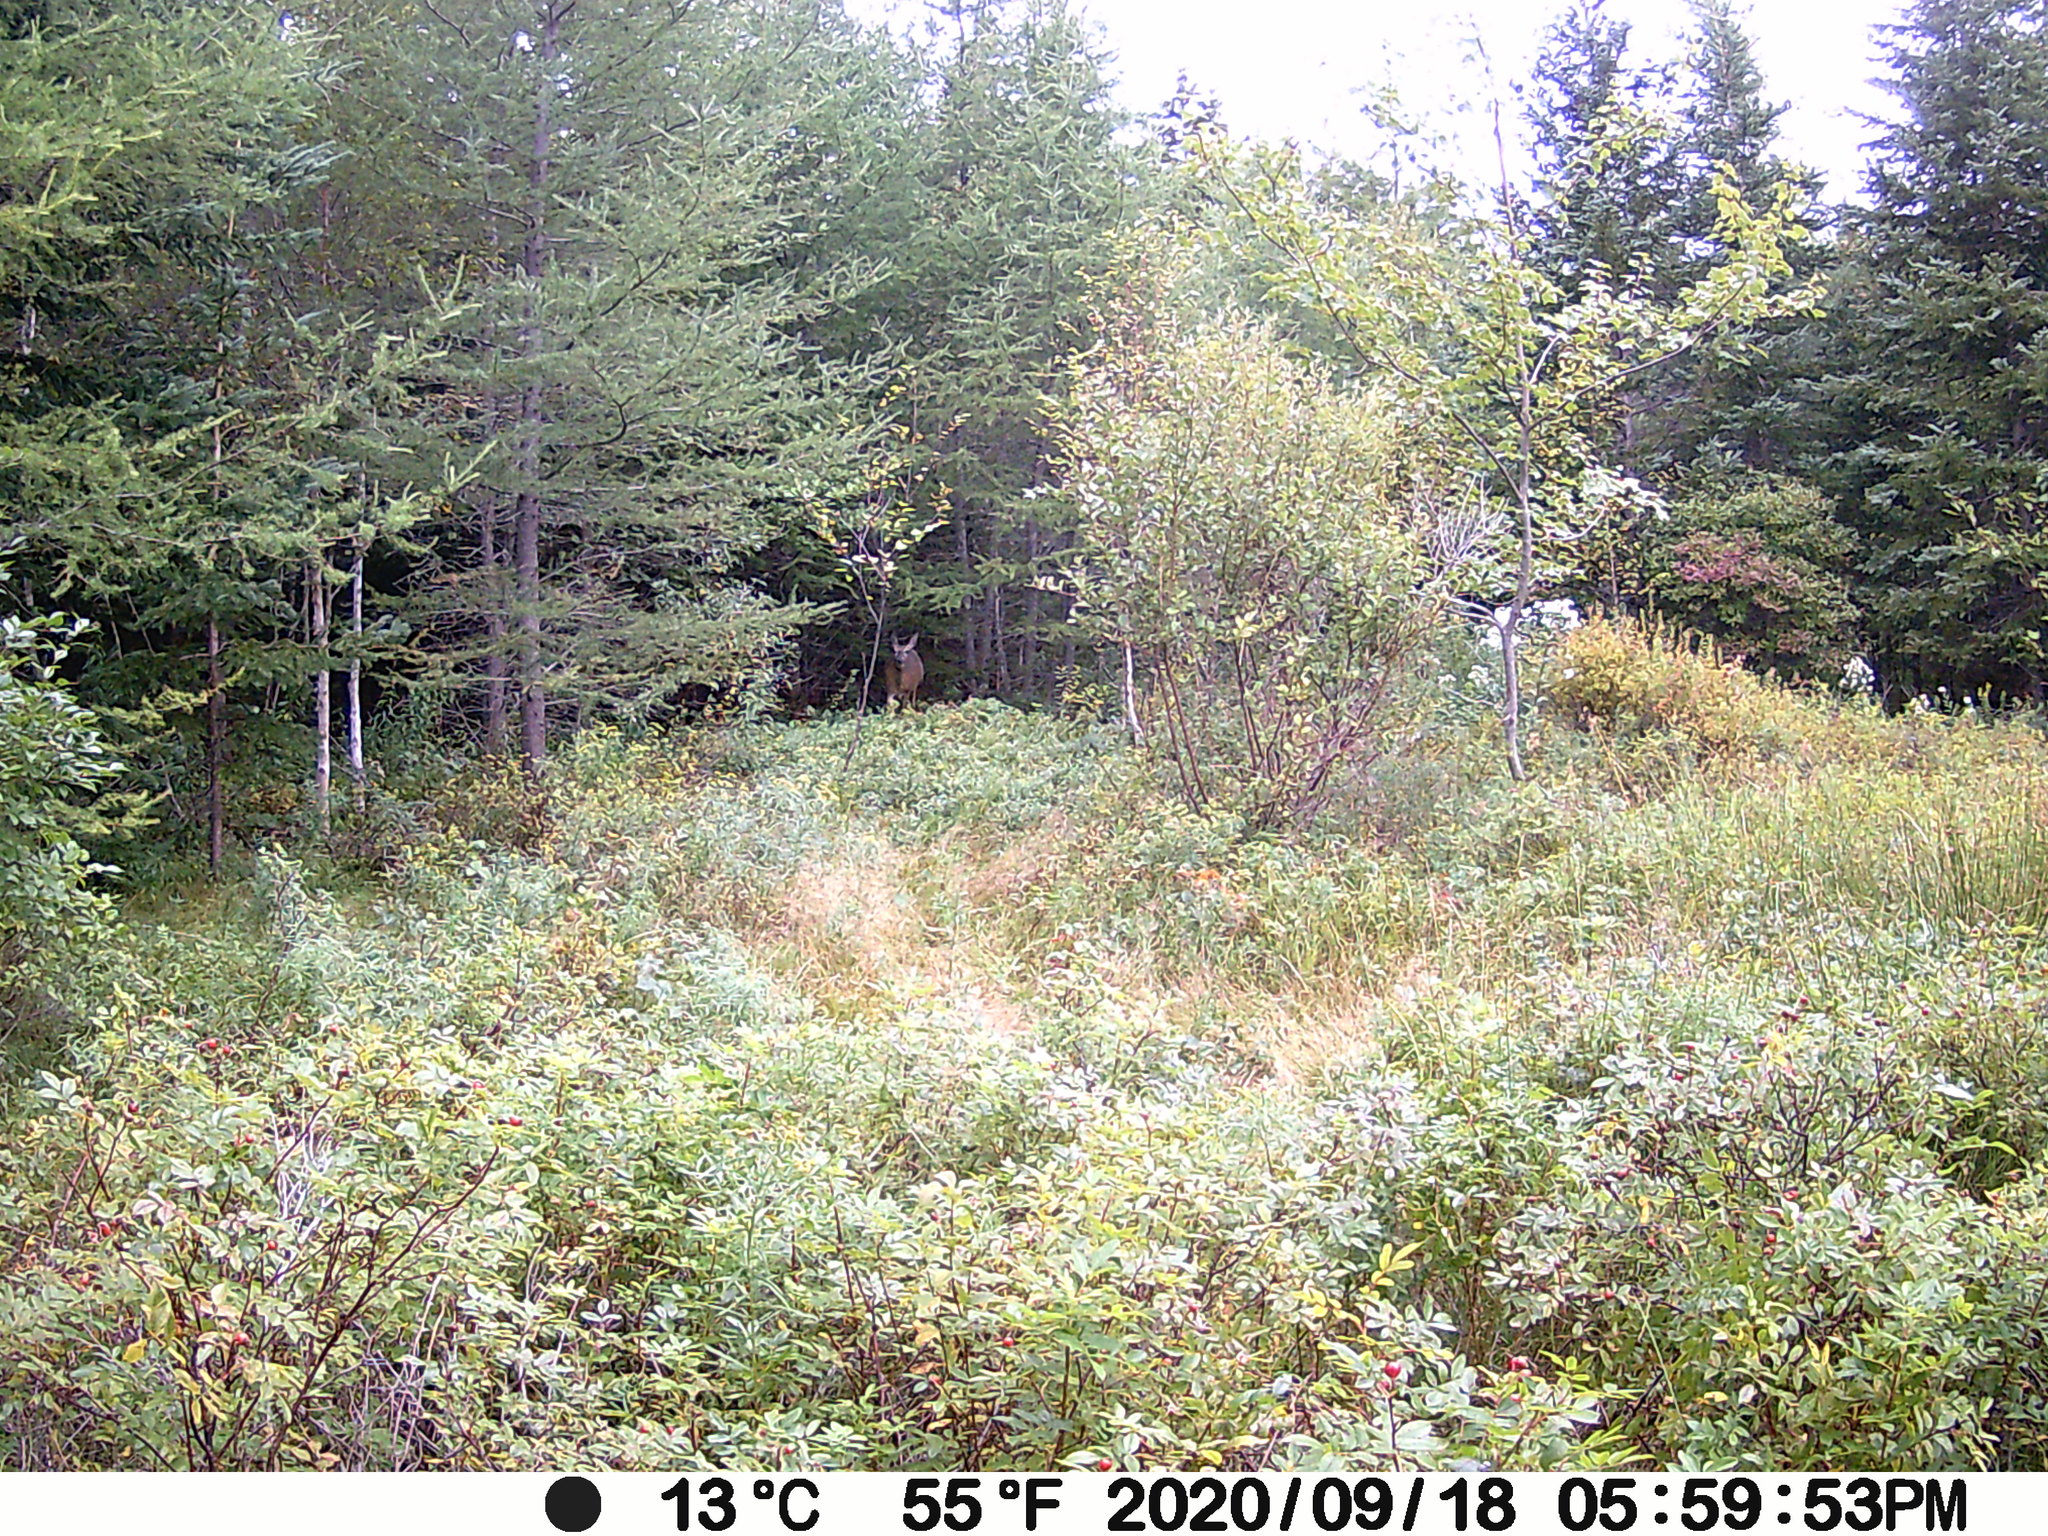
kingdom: Animalia
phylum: Chordata
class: Mammalia
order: Artiodactyla
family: Cervidae
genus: Odocoileus
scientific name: Odocoileus virginianus
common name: White-tailed deer
